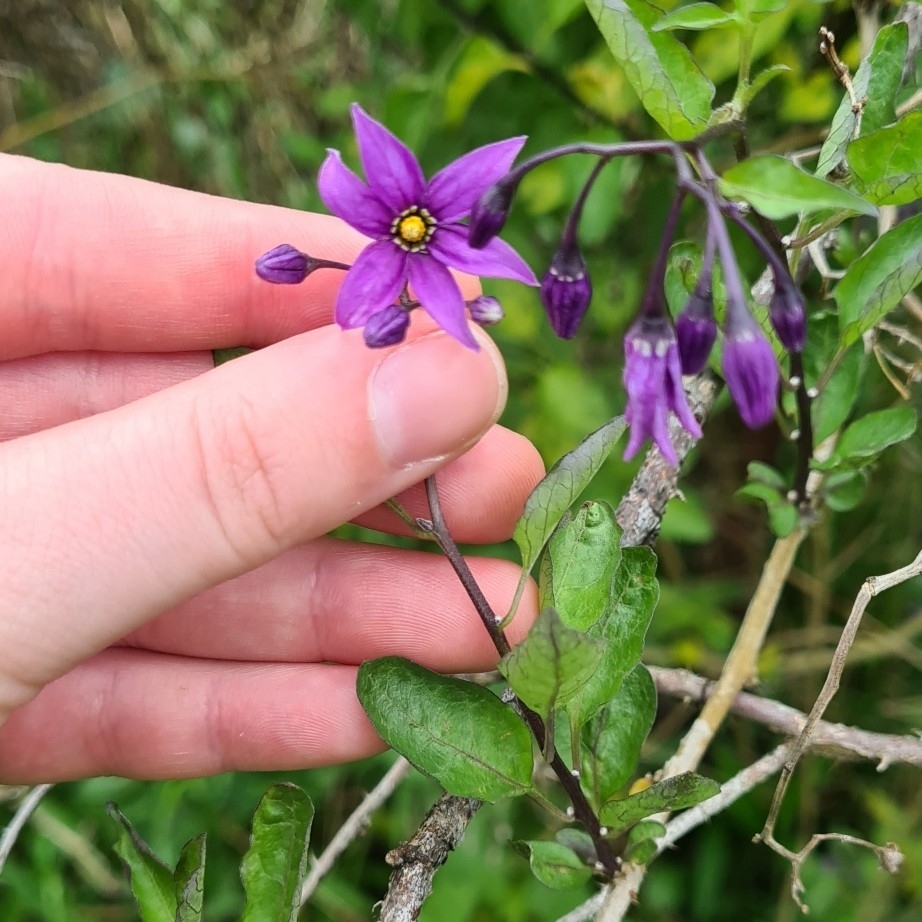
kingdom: Plantae
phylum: Tracheophyta
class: Magnoliopsida
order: Solanales
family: Solanaceae
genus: Solanum
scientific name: Solanum dulcamara
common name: Climbing nightshade
